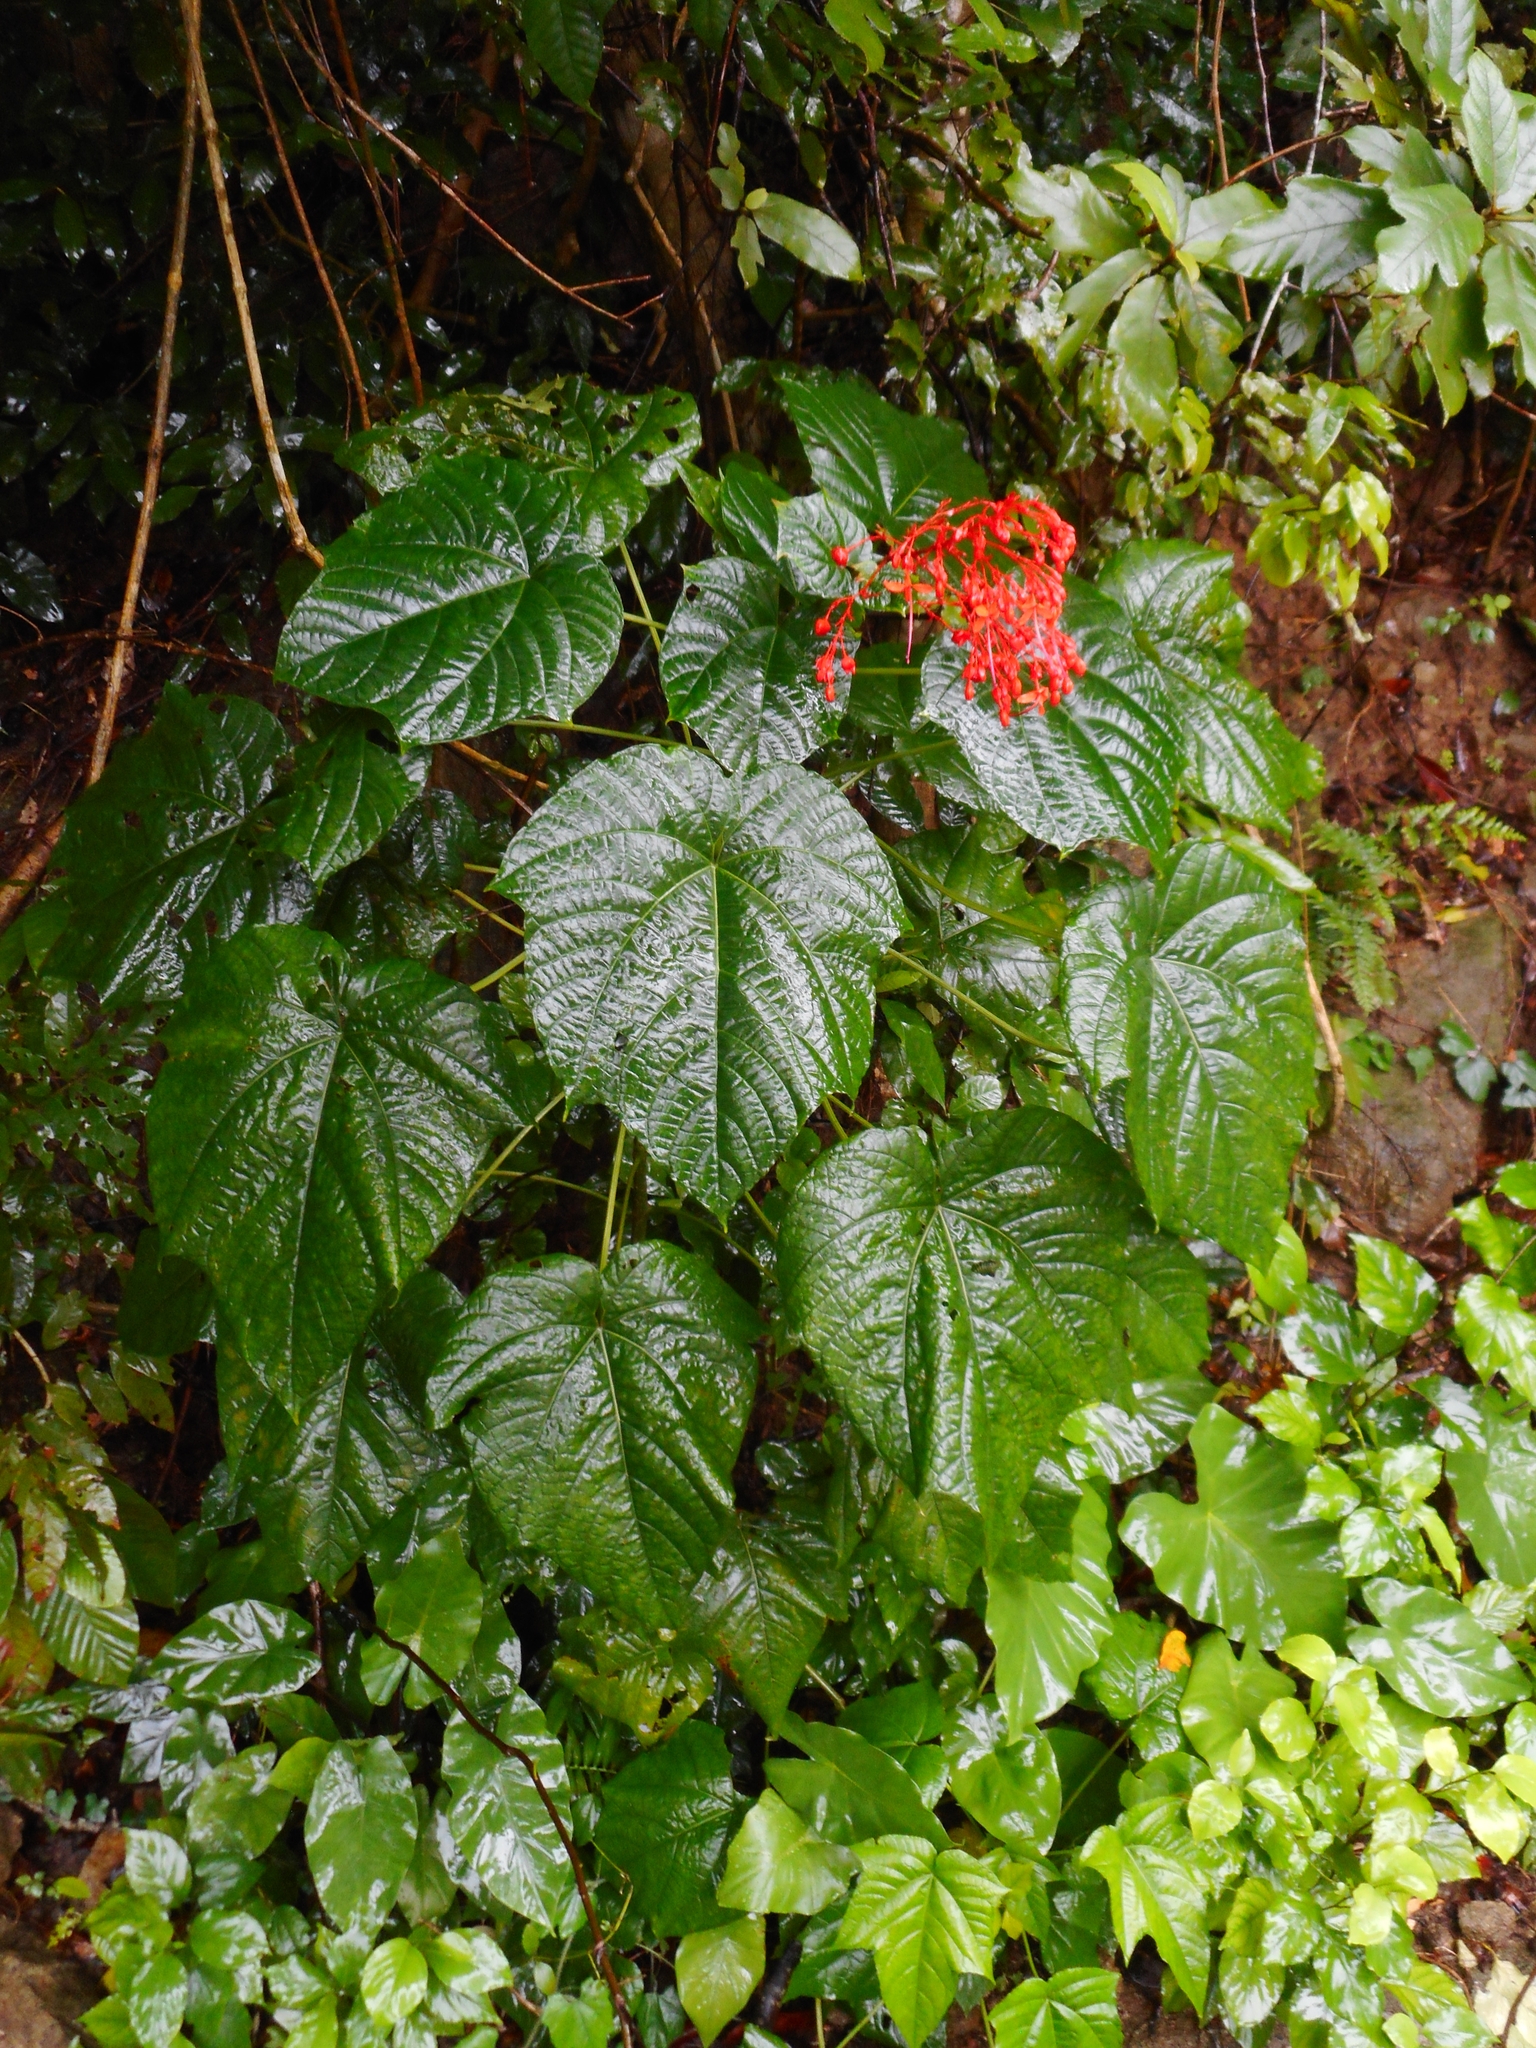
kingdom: Plantae
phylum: Tracheophyta
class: Magnoliopsida
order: Lamiales
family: Lamiaceae
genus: Clerodendrum
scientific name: Clerodendrum japonicum
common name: Japanese glorybower
